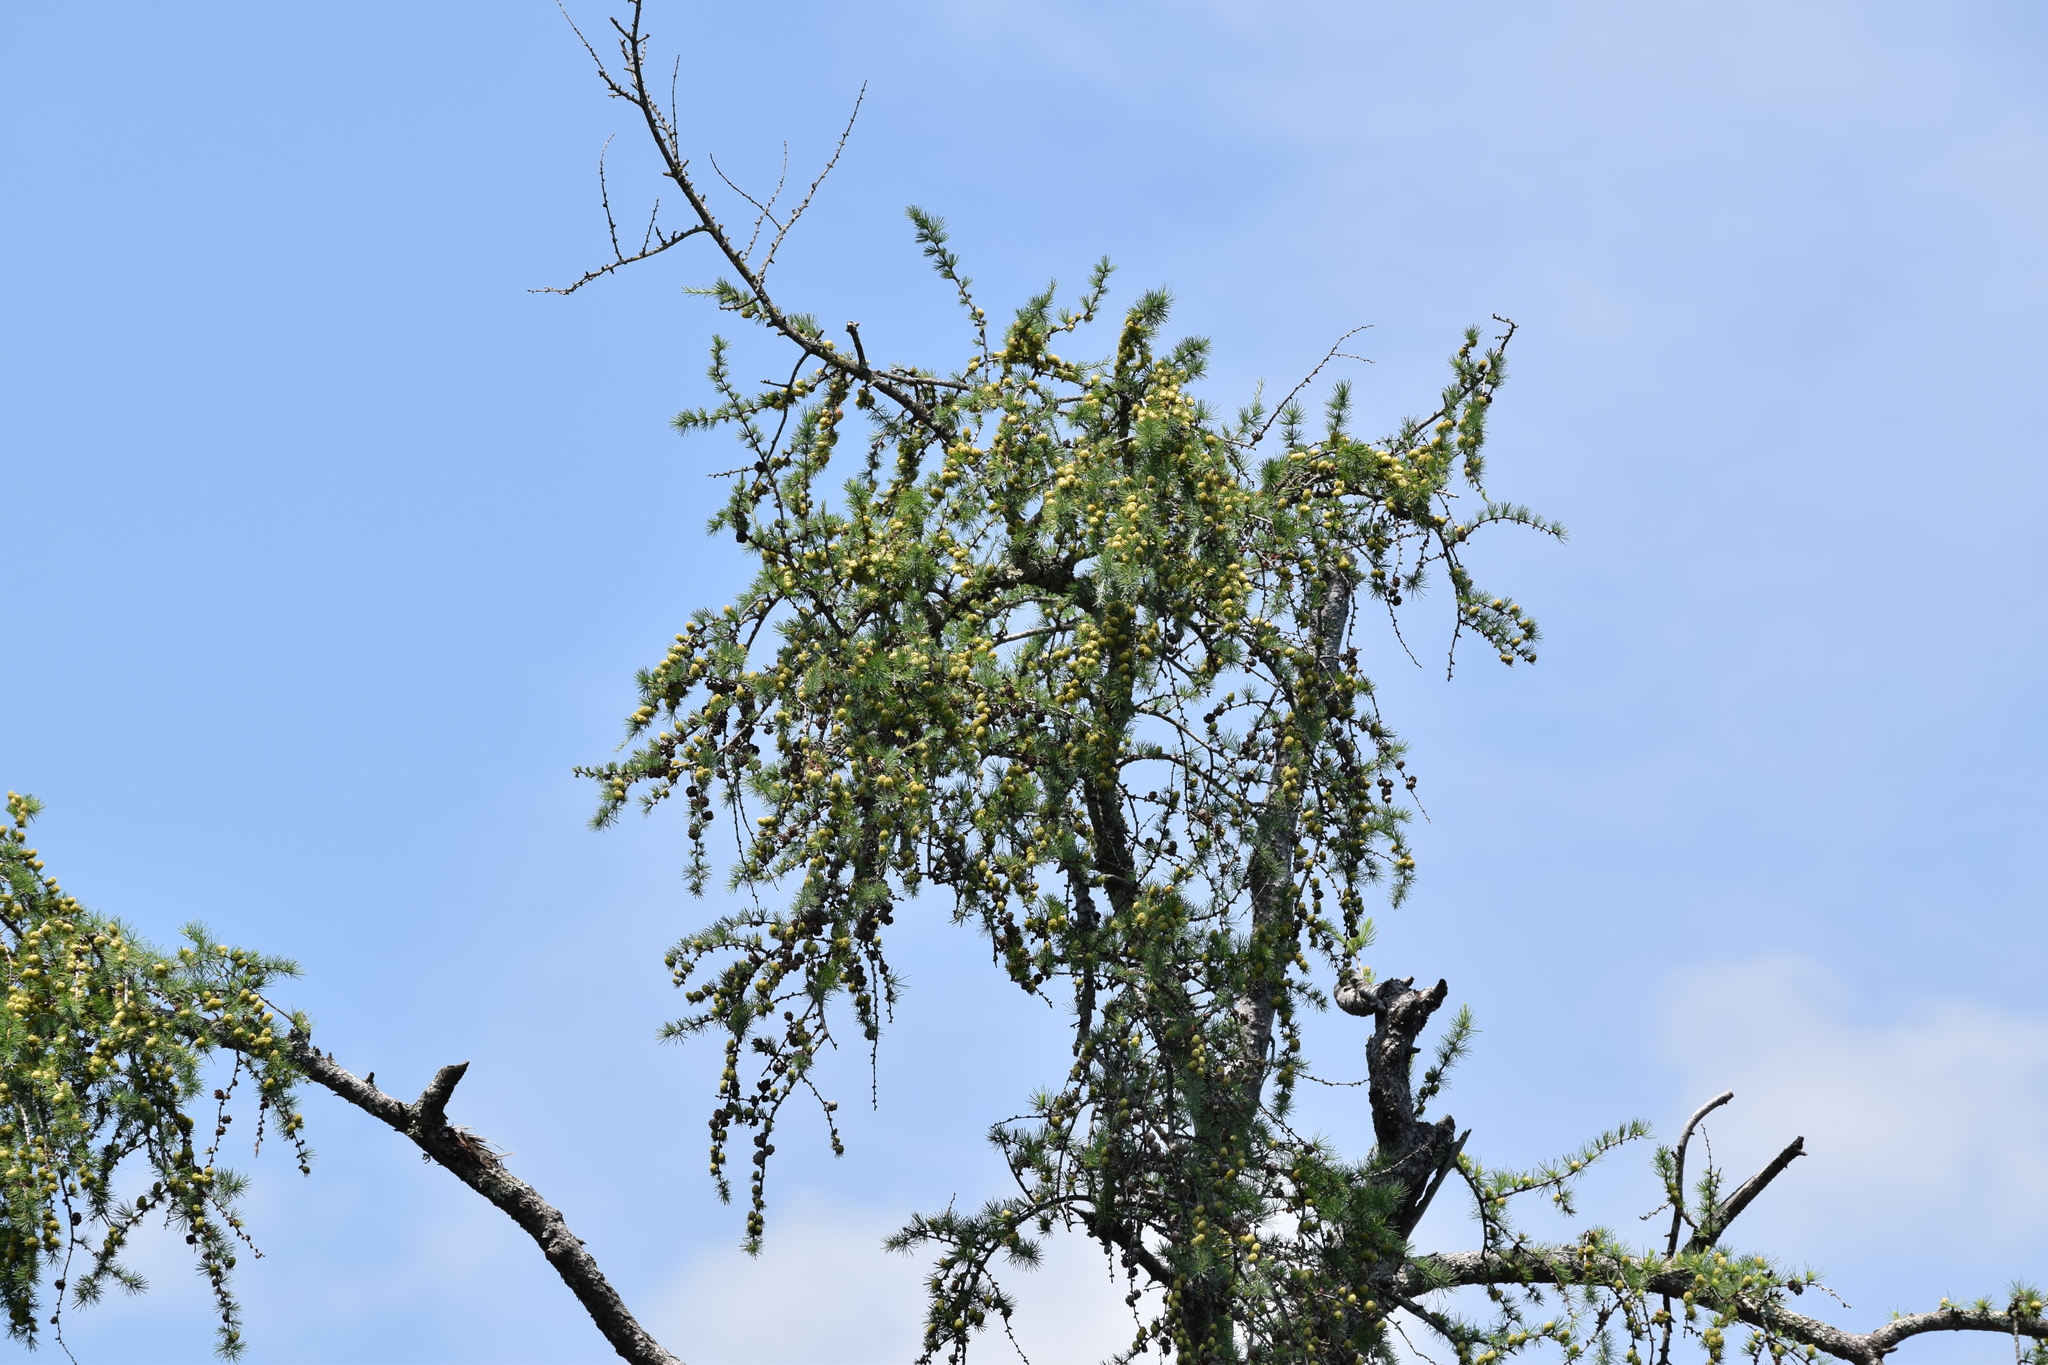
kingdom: Plantae
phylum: Tracheophyta
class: Pinopsida
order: Pinales
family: Pinaceae
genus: Larix
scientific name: Larix laricina
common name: American larch
